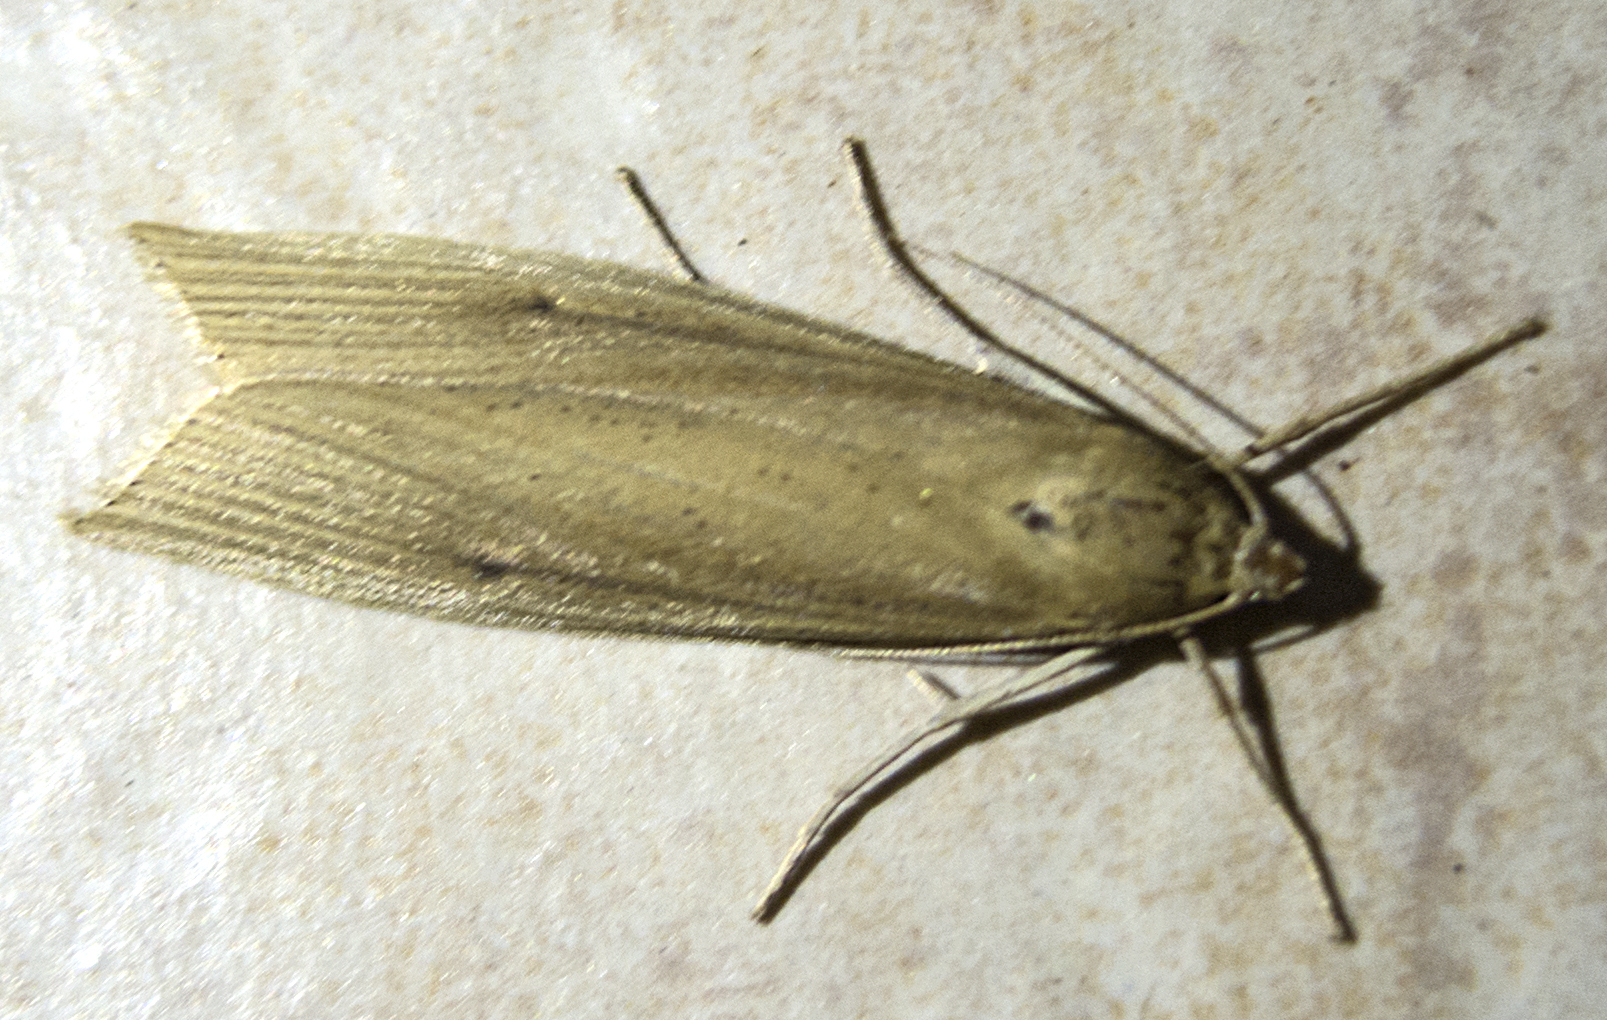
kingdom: Animalia
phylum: Arthropoda
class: Insecta
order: Lepidoptera
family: Crambidae
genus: Chilo
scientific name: Chilo phragmitella
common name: Reed veneer
